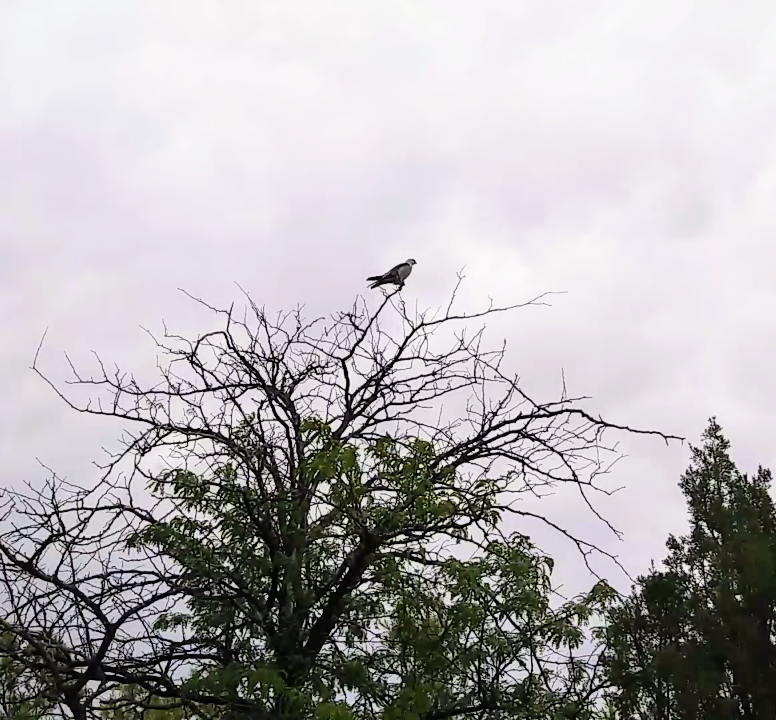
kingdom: Animalia
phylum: Chordata
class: Aves
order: Accipitriformes
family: Accipitridae
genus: Ictinia
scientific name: Ictinia mississippiensis
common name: Mississippi kite
